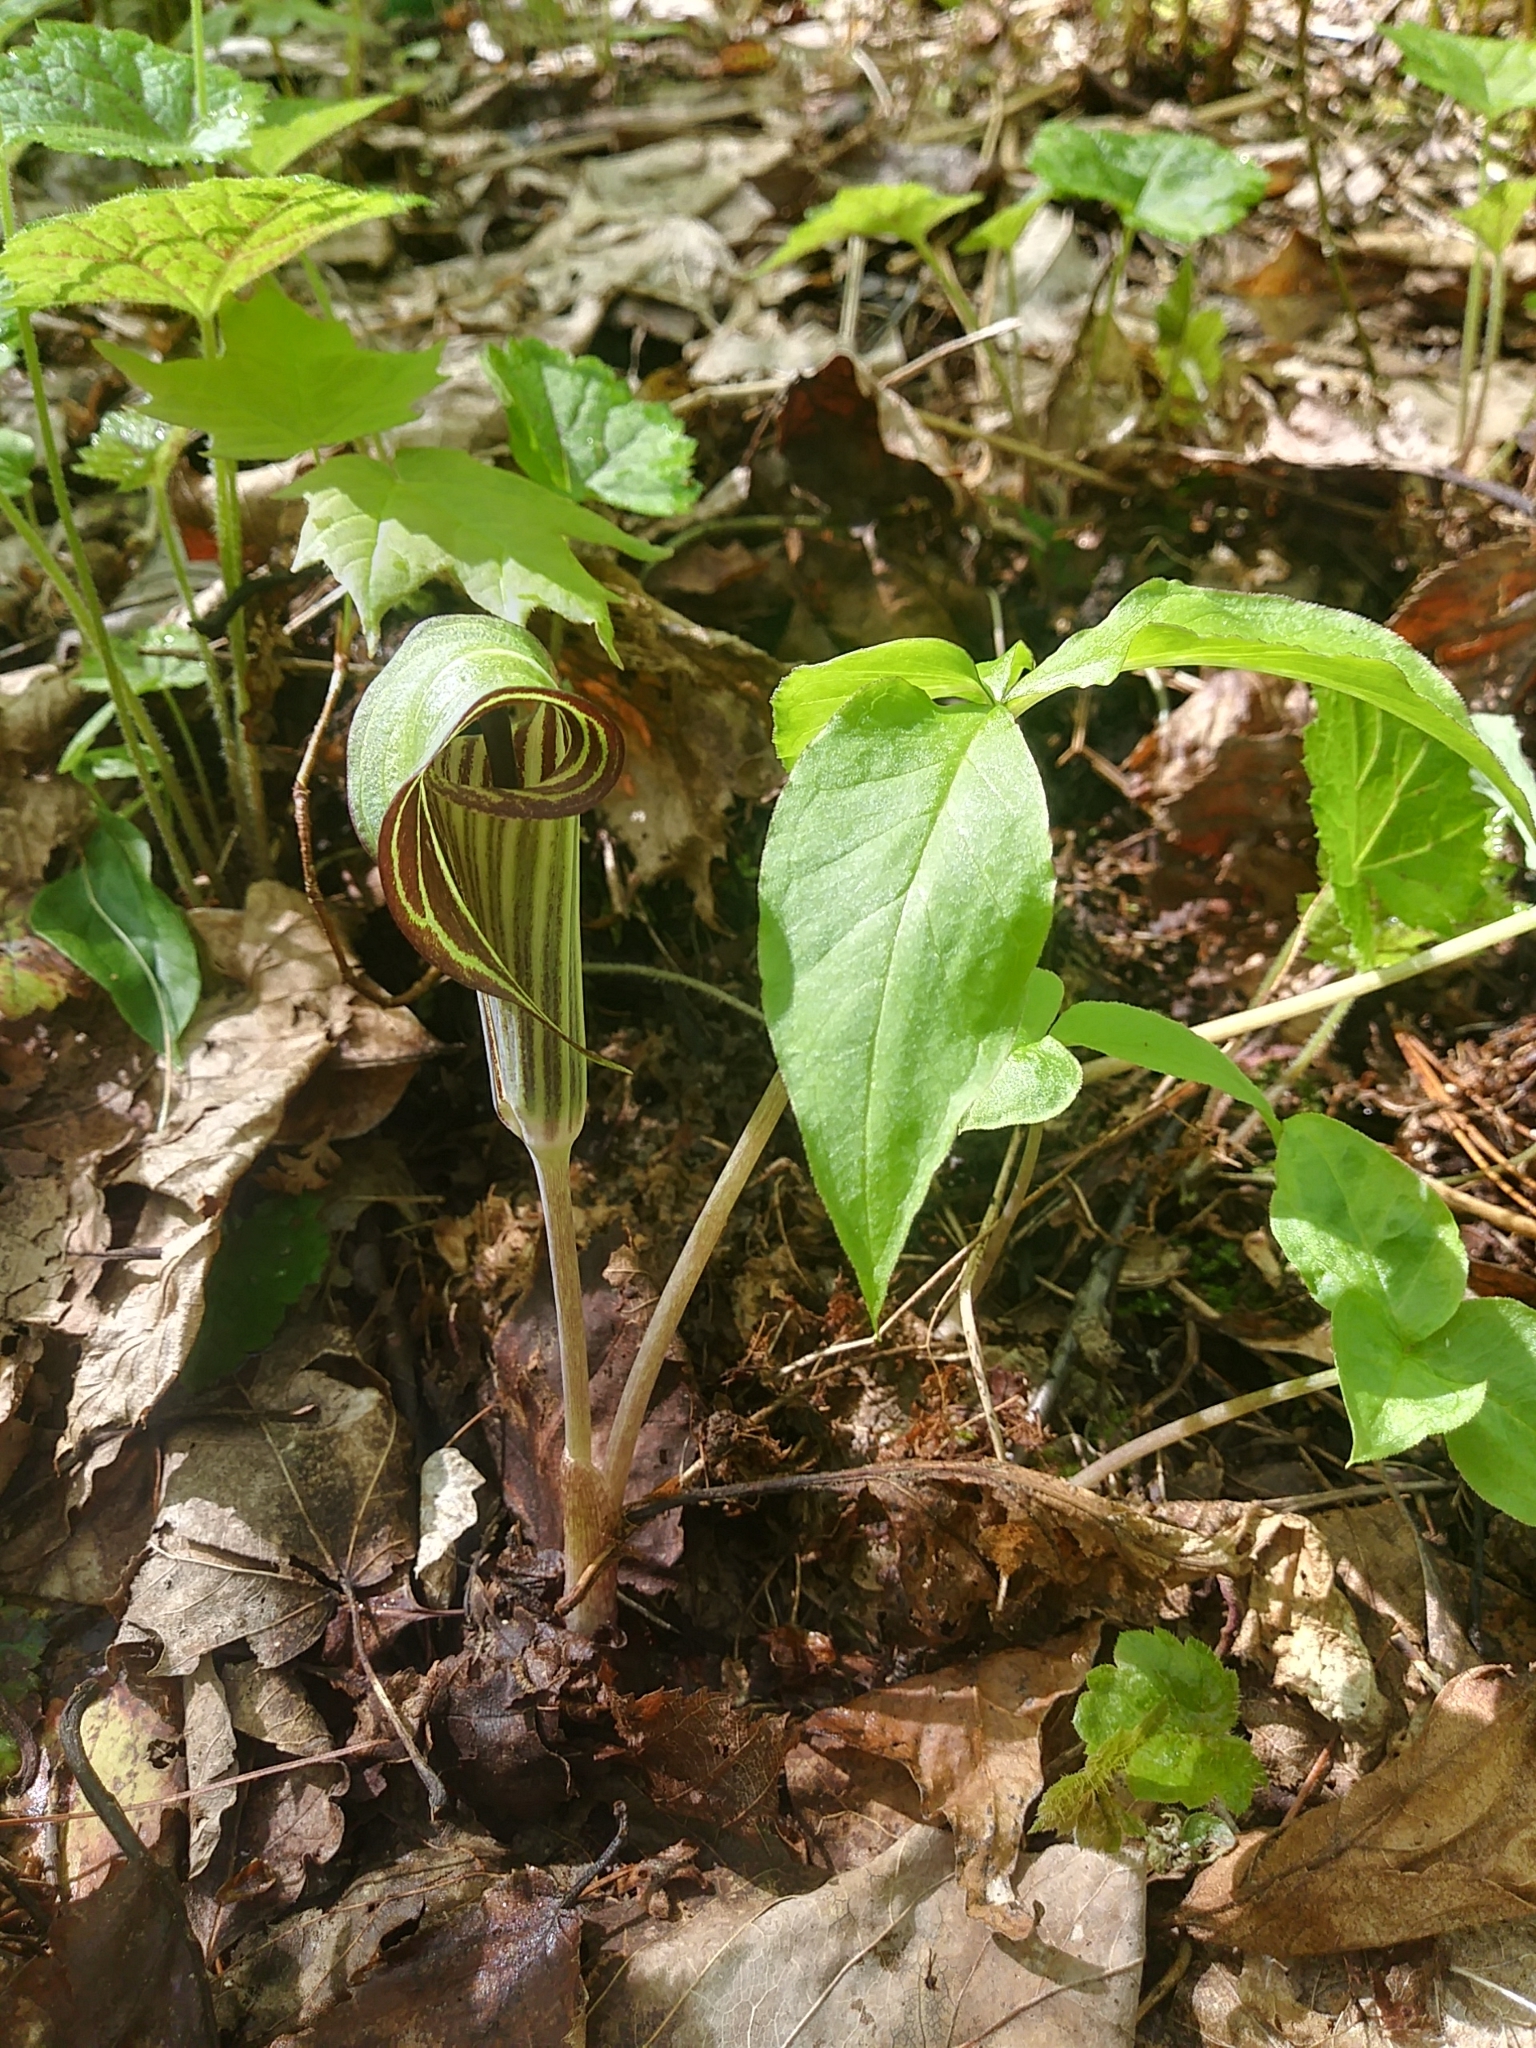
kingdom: Plantae
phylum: Tracheophyta
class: Liliopsida
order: Alismatales
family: Araceae
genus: Arisaema
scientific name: Arisaema triphyllum
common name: Jack-in-the-pulpit
